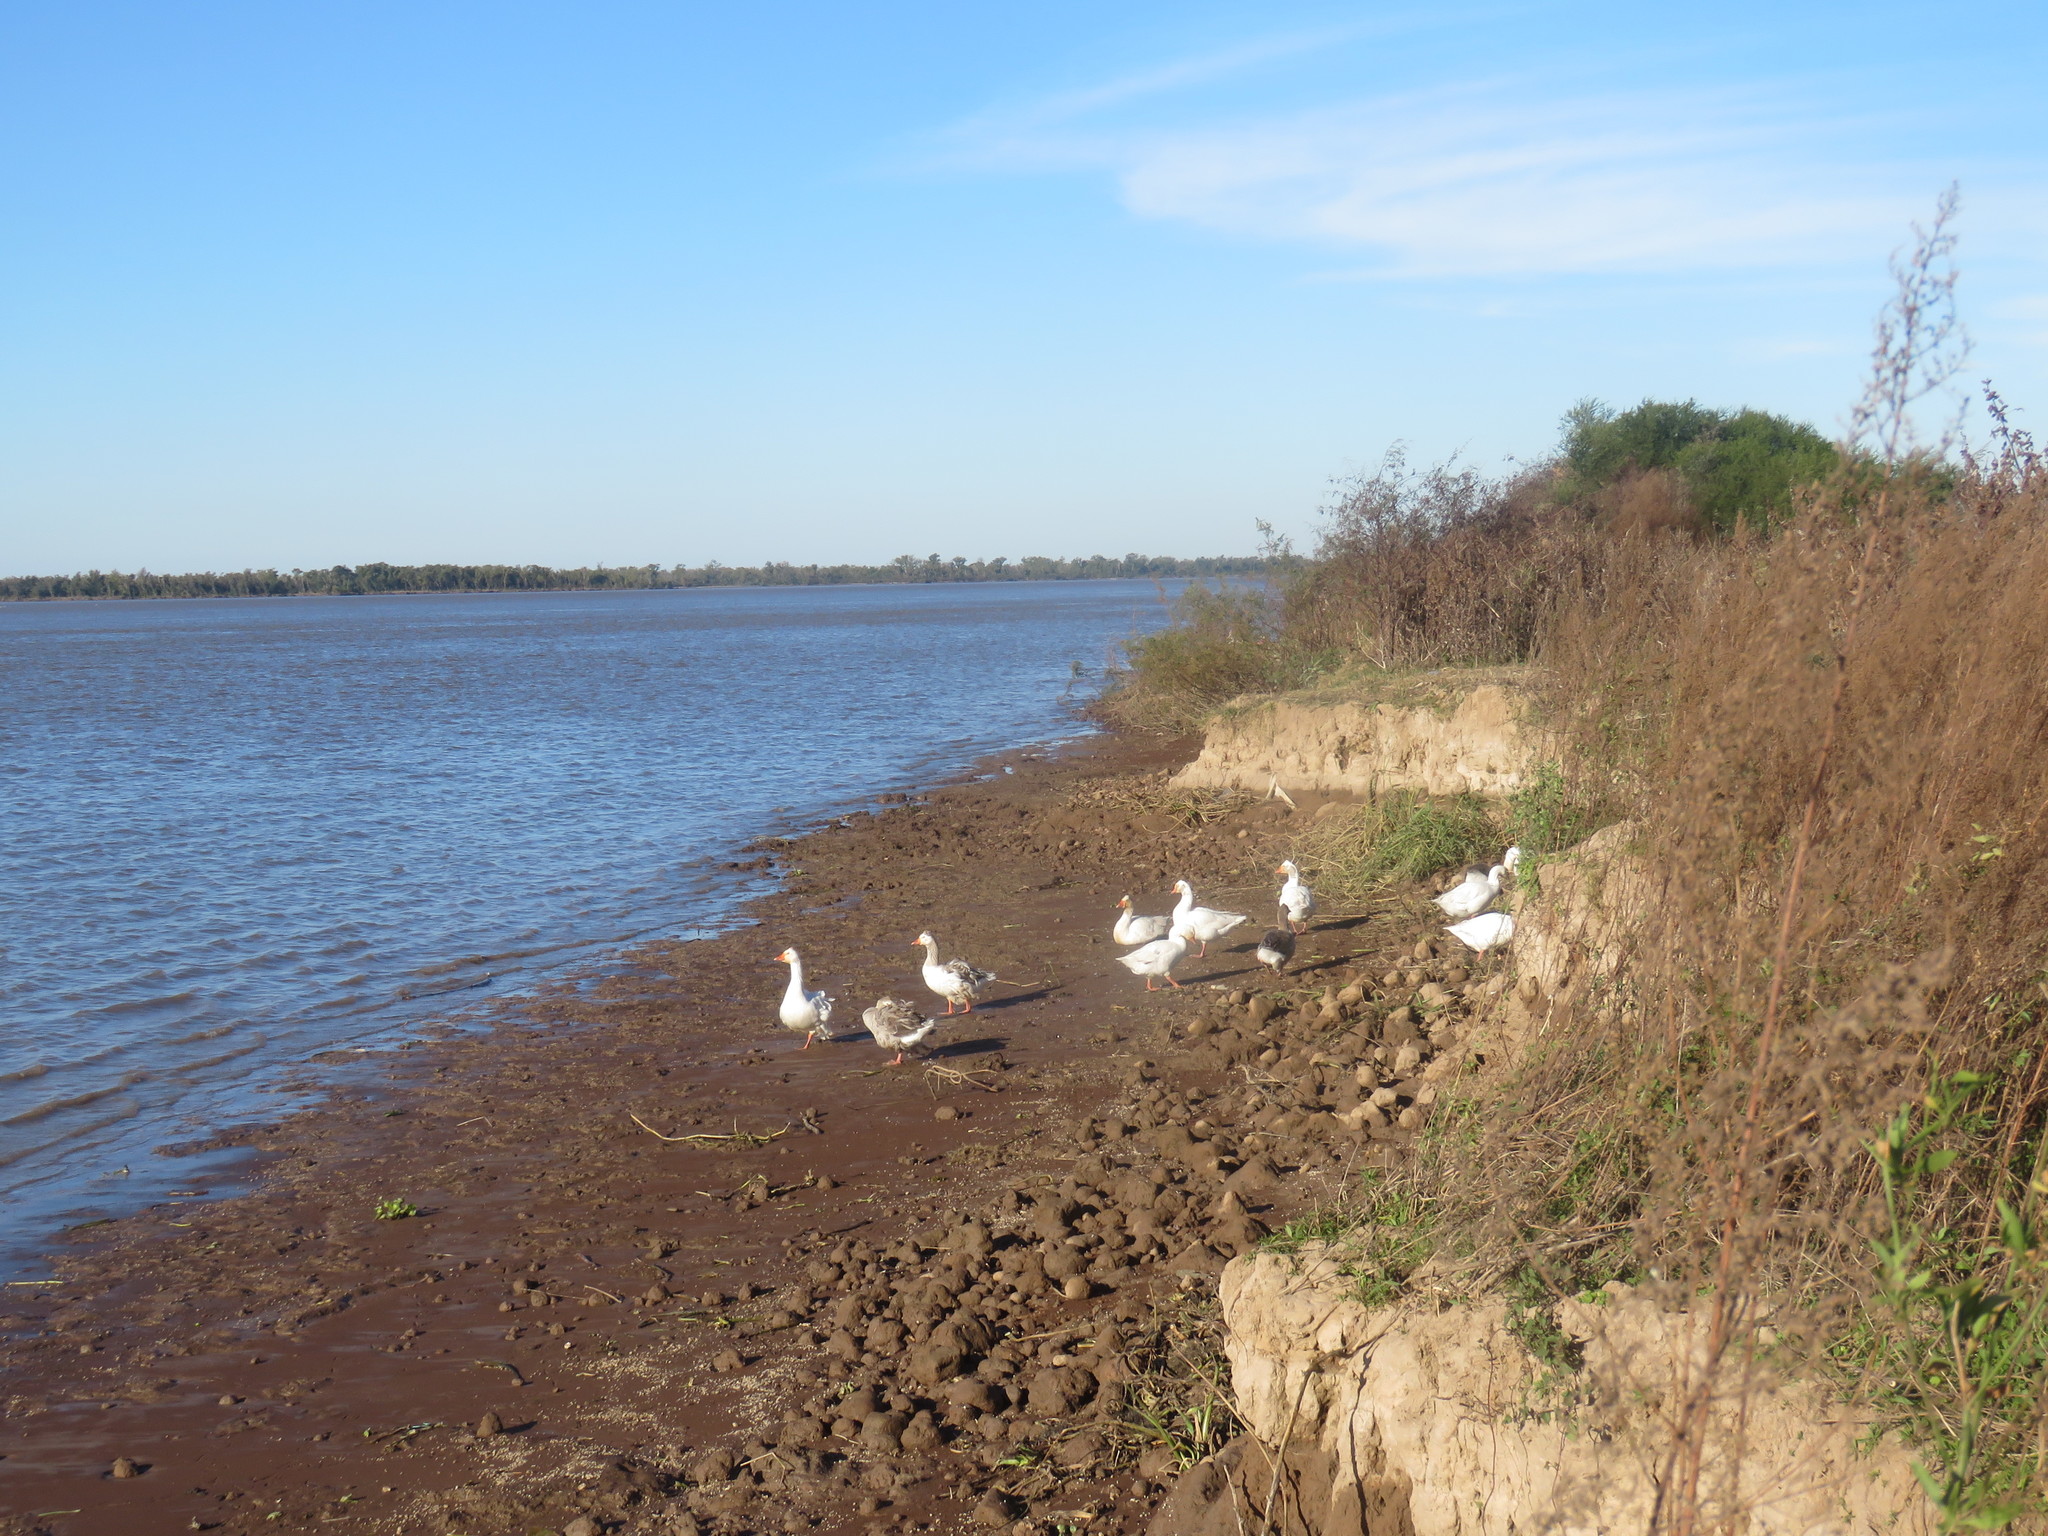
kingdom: Animalia
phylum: Chordata
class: Aves
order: Anseriformes
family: Anatidae
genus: Anser
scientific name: Anser anser
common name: Greylag goose
